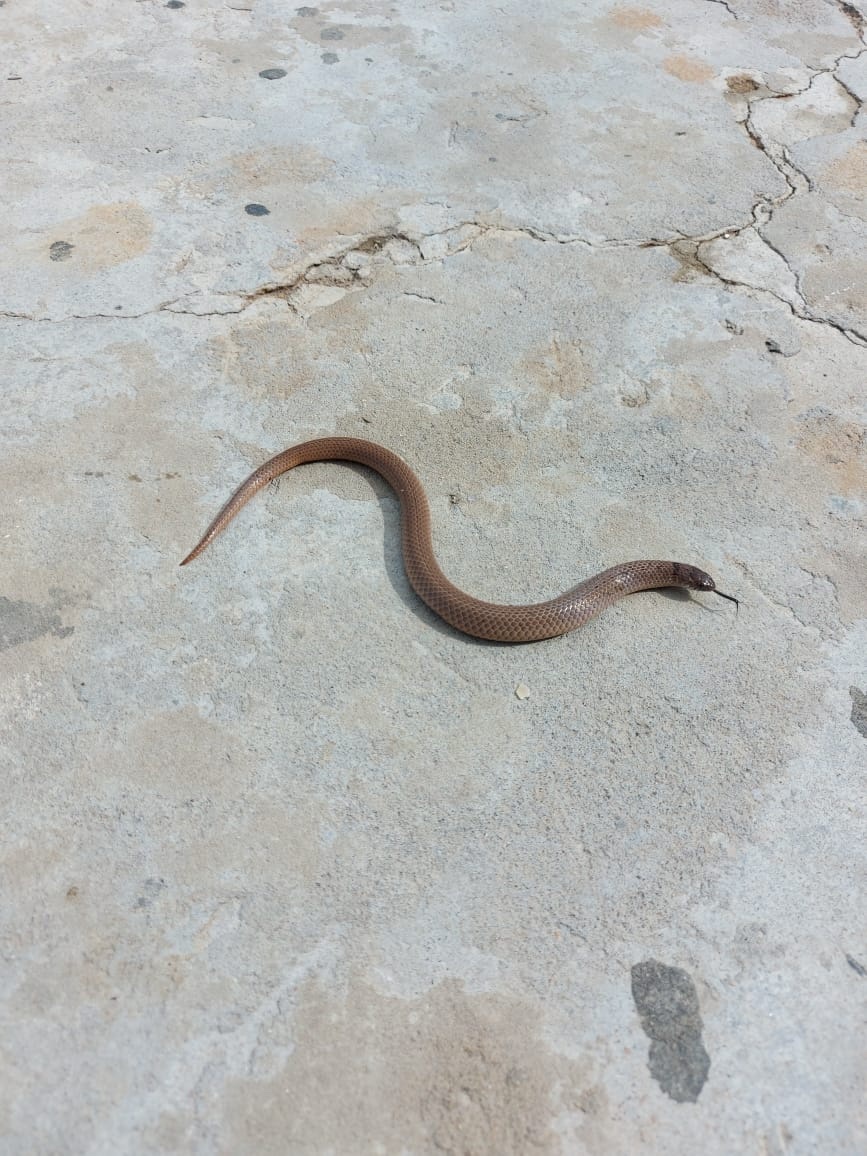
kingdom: Animalia
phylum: Chordata
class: Squamata
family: Pseudoxyrhophiidae
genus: Duberria
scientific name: Duberria variegata
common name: Spotted slug-eater
